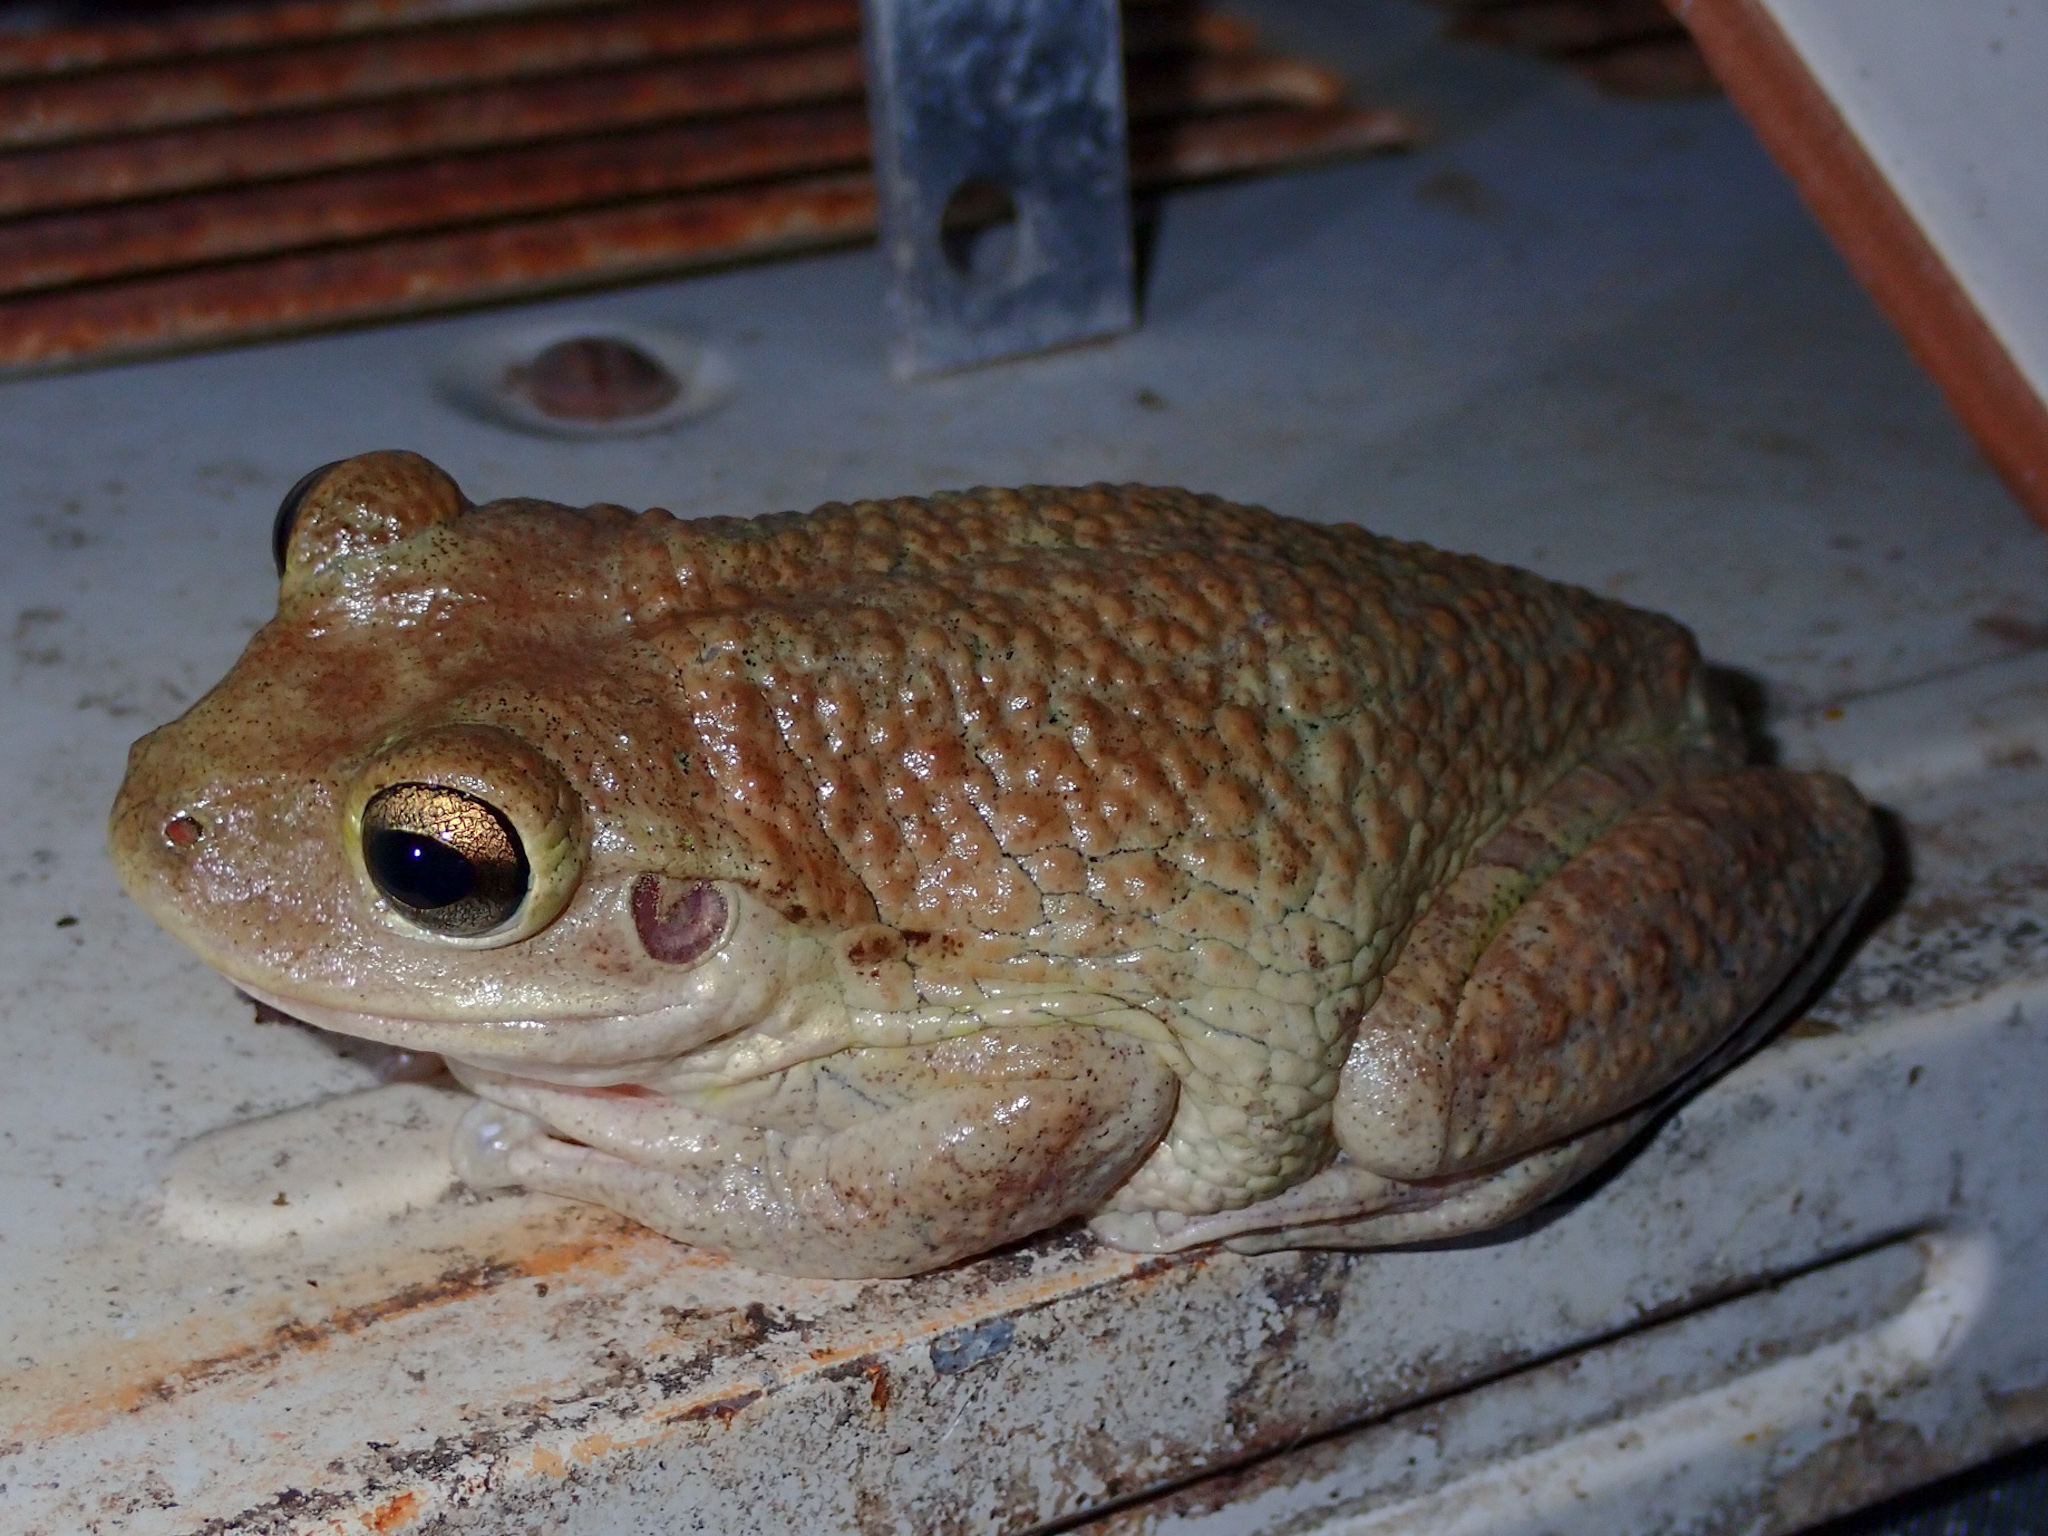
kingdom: Animalia
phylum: Chordata
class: Amphibia
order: Anura
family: Hylidae
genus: Osteopilus
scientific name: Osteopilus septentrionalis
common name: Cuban treefrog
